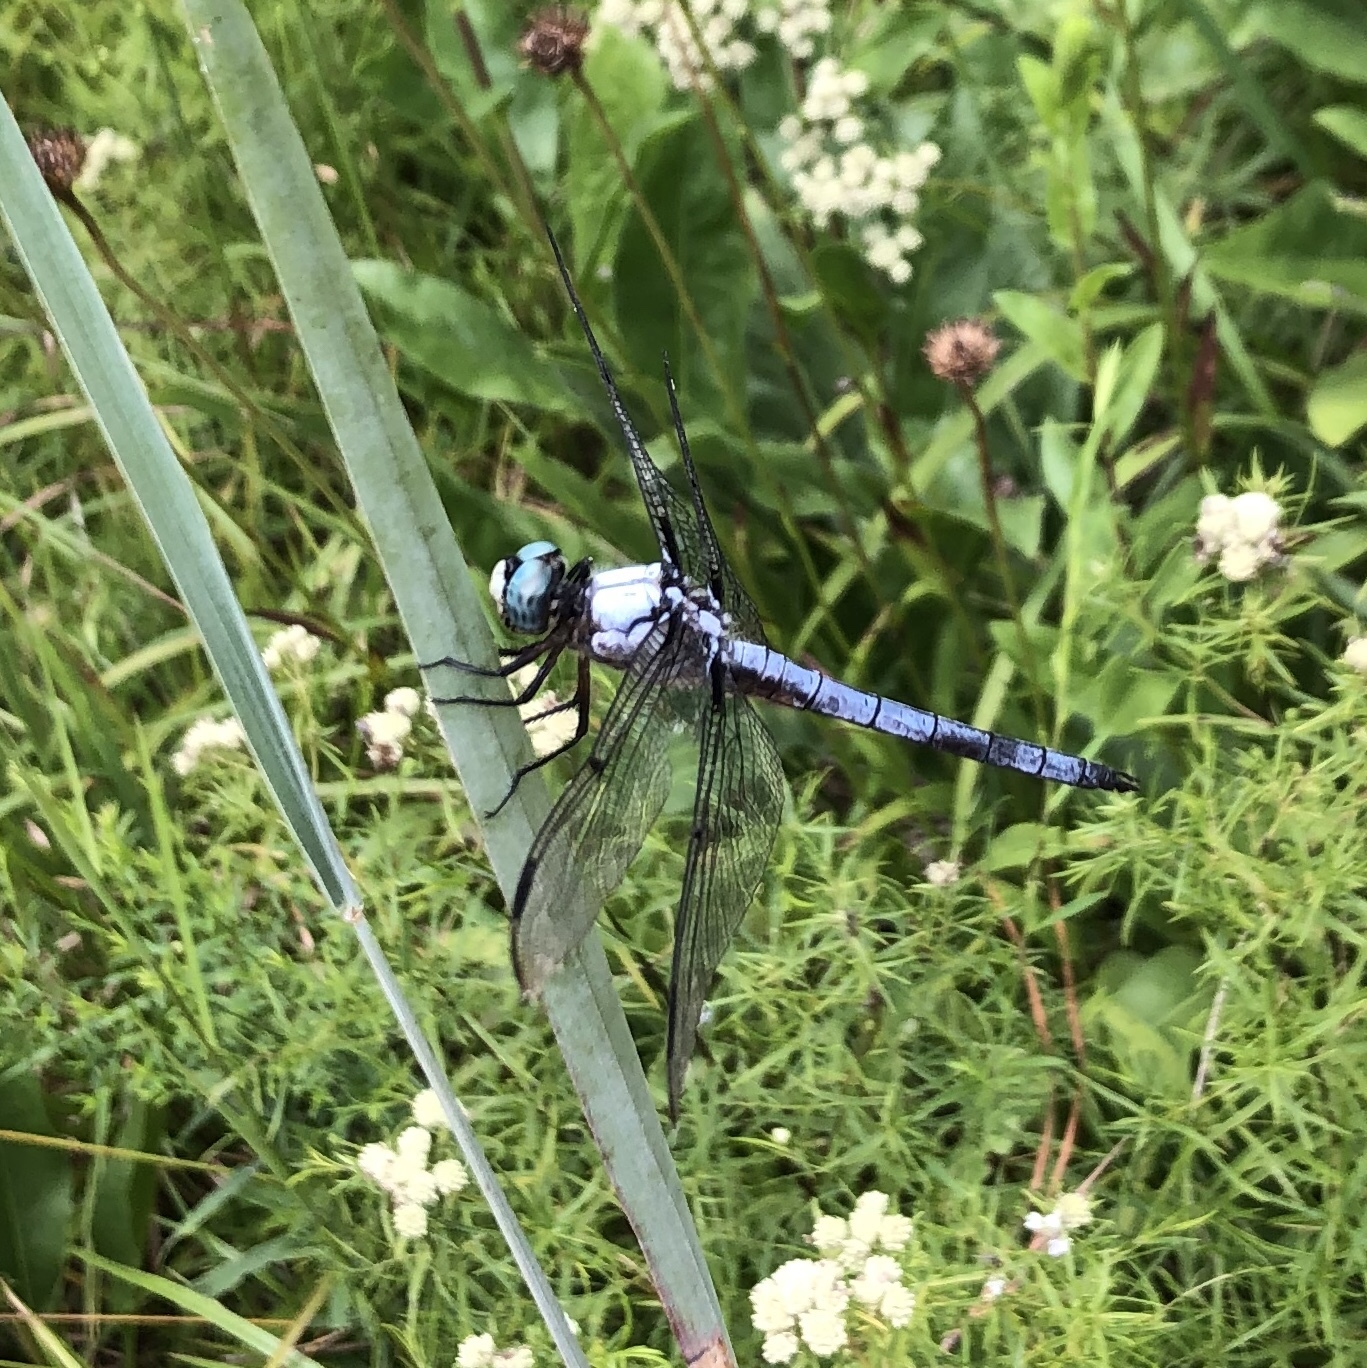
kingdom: Animalia
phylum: Arthropoda
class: Insecta
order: Odonata
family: Libellulidae
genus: Libellula
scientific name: Libellula vibrans
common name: Great blue skimmer
